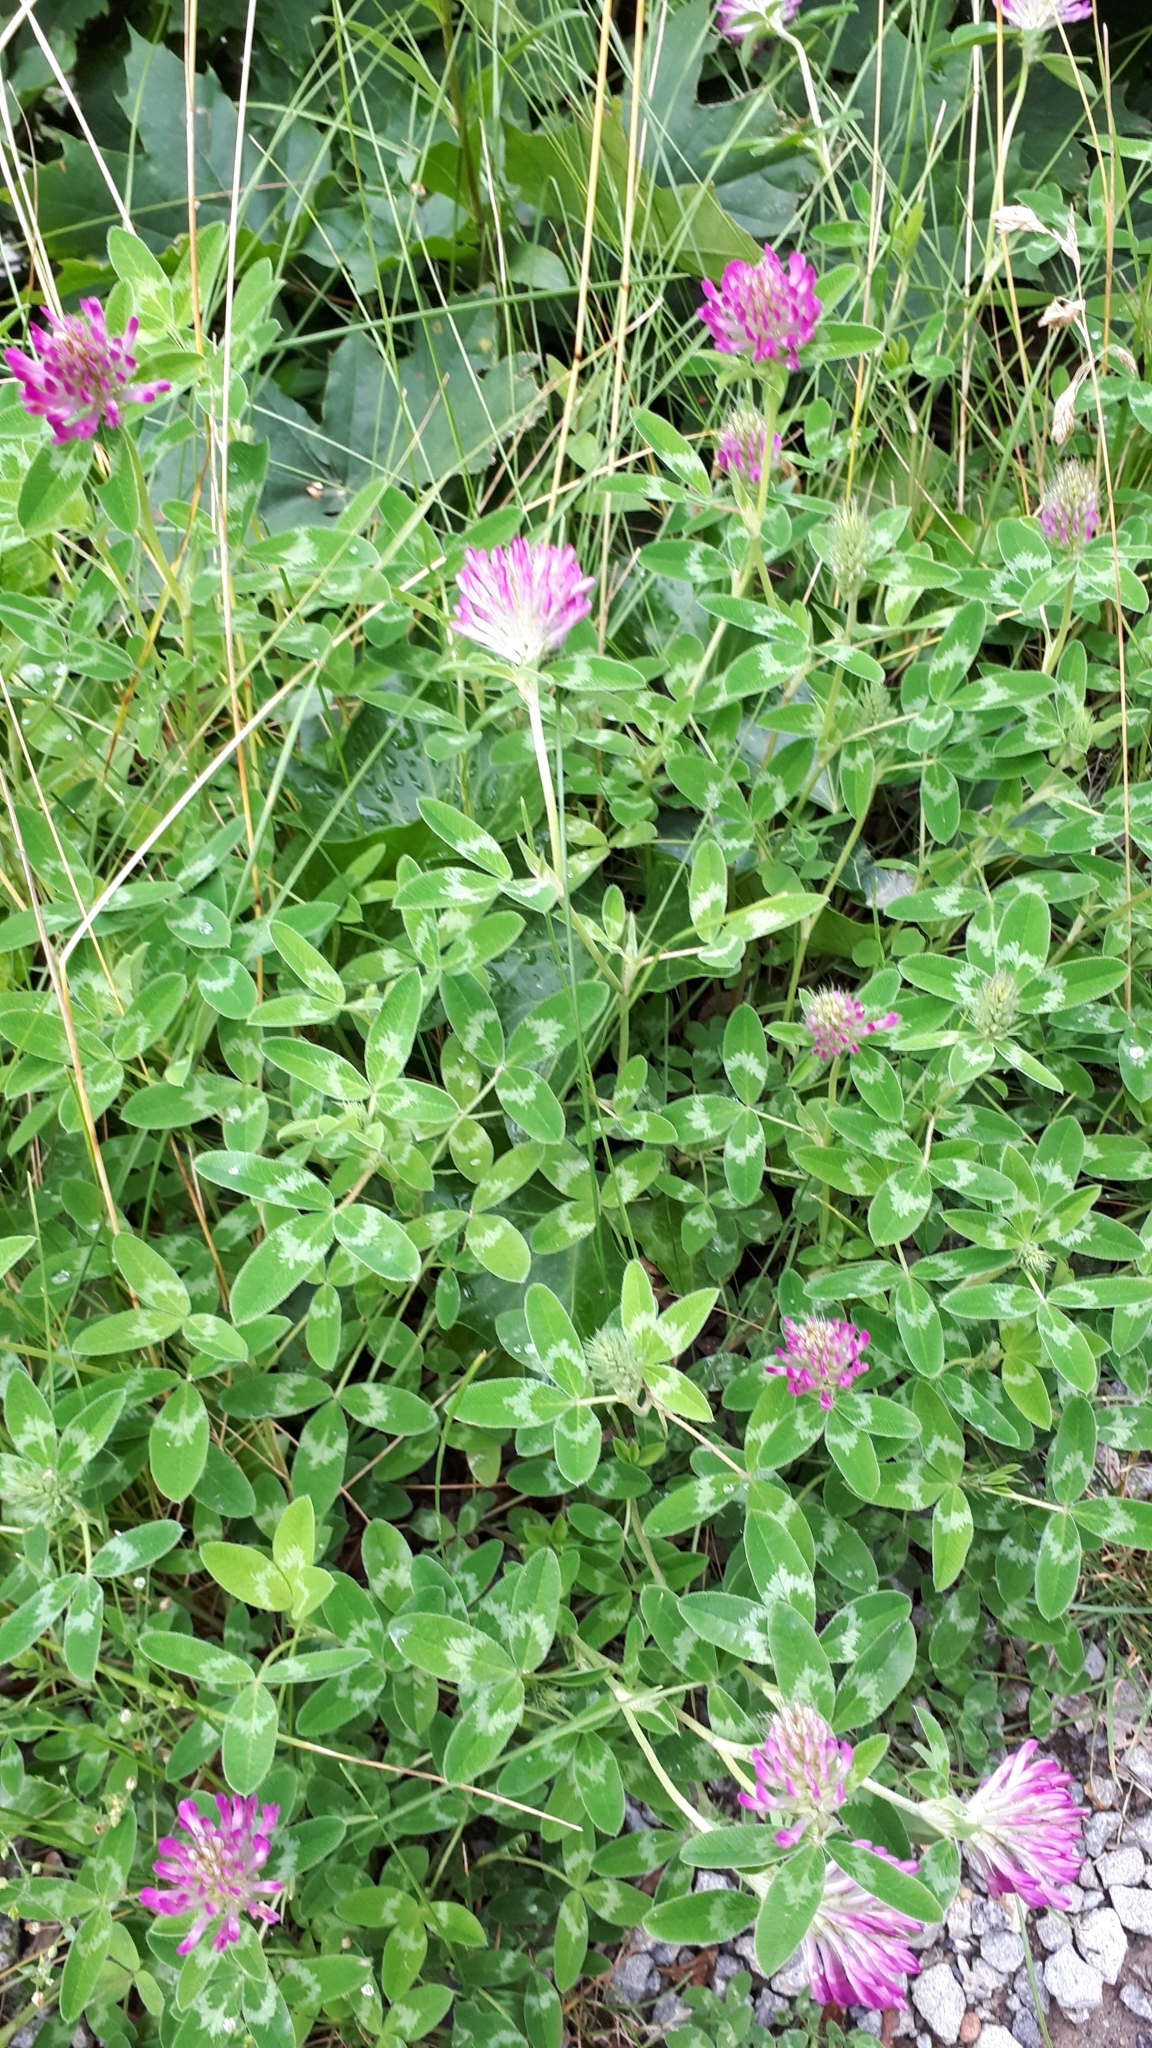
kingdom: Plantae
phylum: Tracheophyta
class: Magnoliopsida
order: Fabales
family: Fabaceae
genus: Trifolium
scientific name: Trifolium pratense
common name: Red clover
